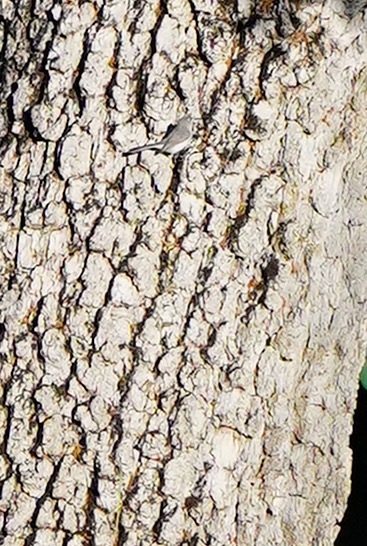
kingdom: Animalia
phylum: Chordata
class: Aves
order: Passeriformes
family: Polioptilidae
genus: Polioptila
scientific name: Polioptila caerulea
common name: Blue-gray gnatcatcher
